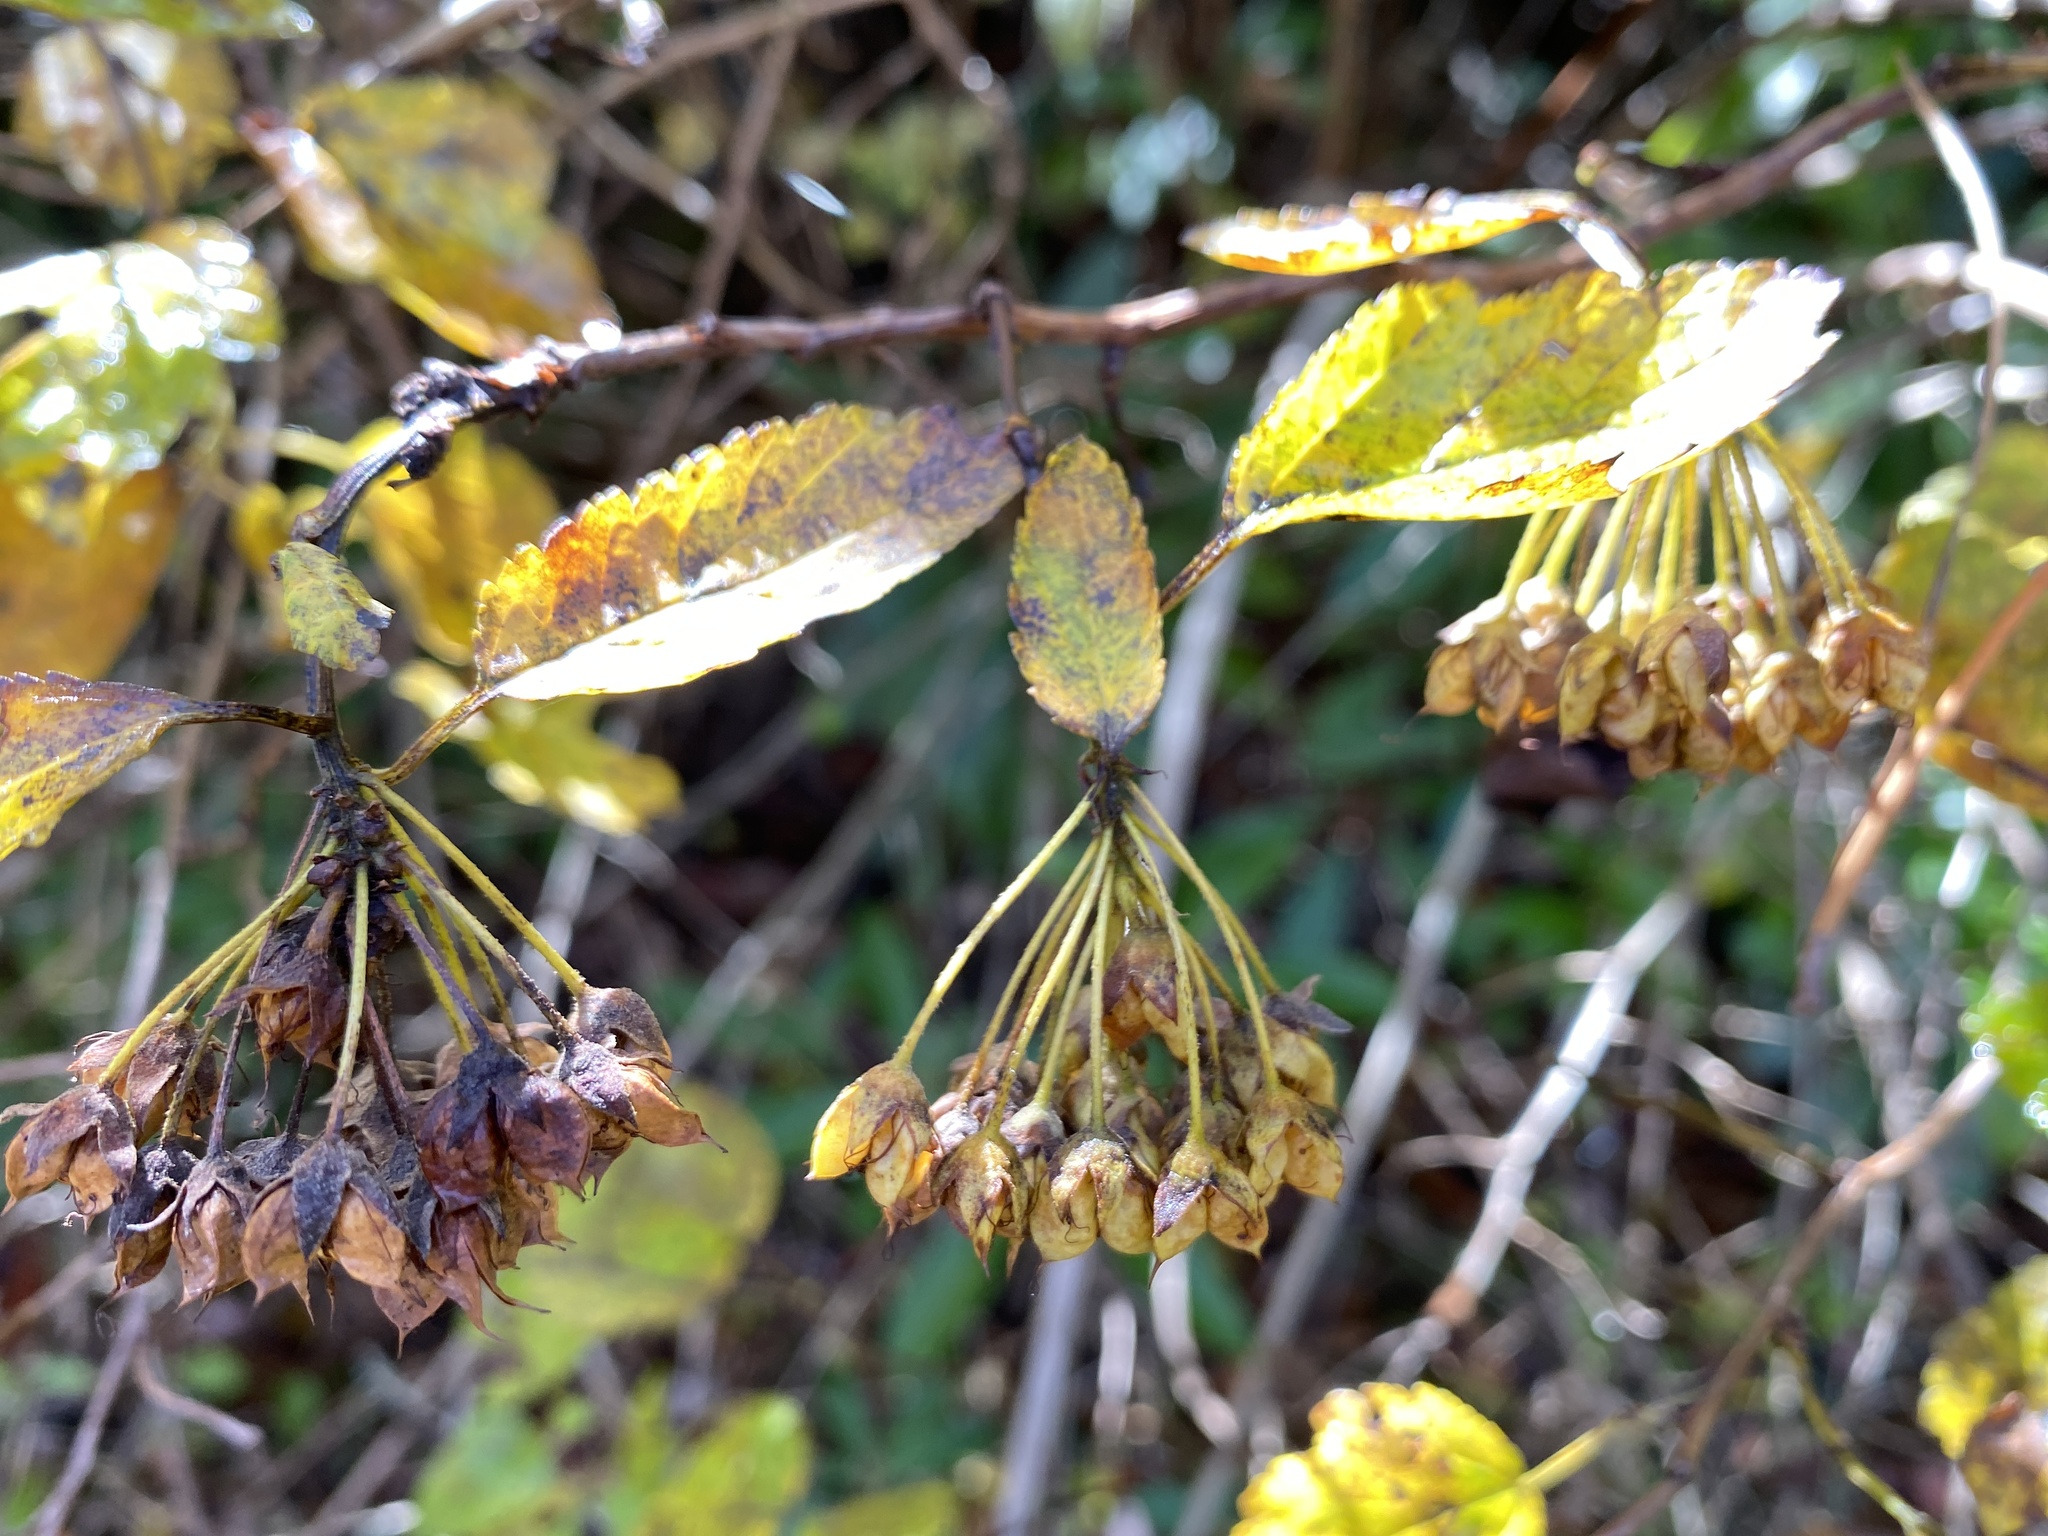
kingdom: Plantae
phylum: Tracheophyta
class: Magnoliopsida
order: Rosales
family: Rosaceae
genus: Physocarpus
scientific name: Physocarpus opulifolius
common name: Ninebark
